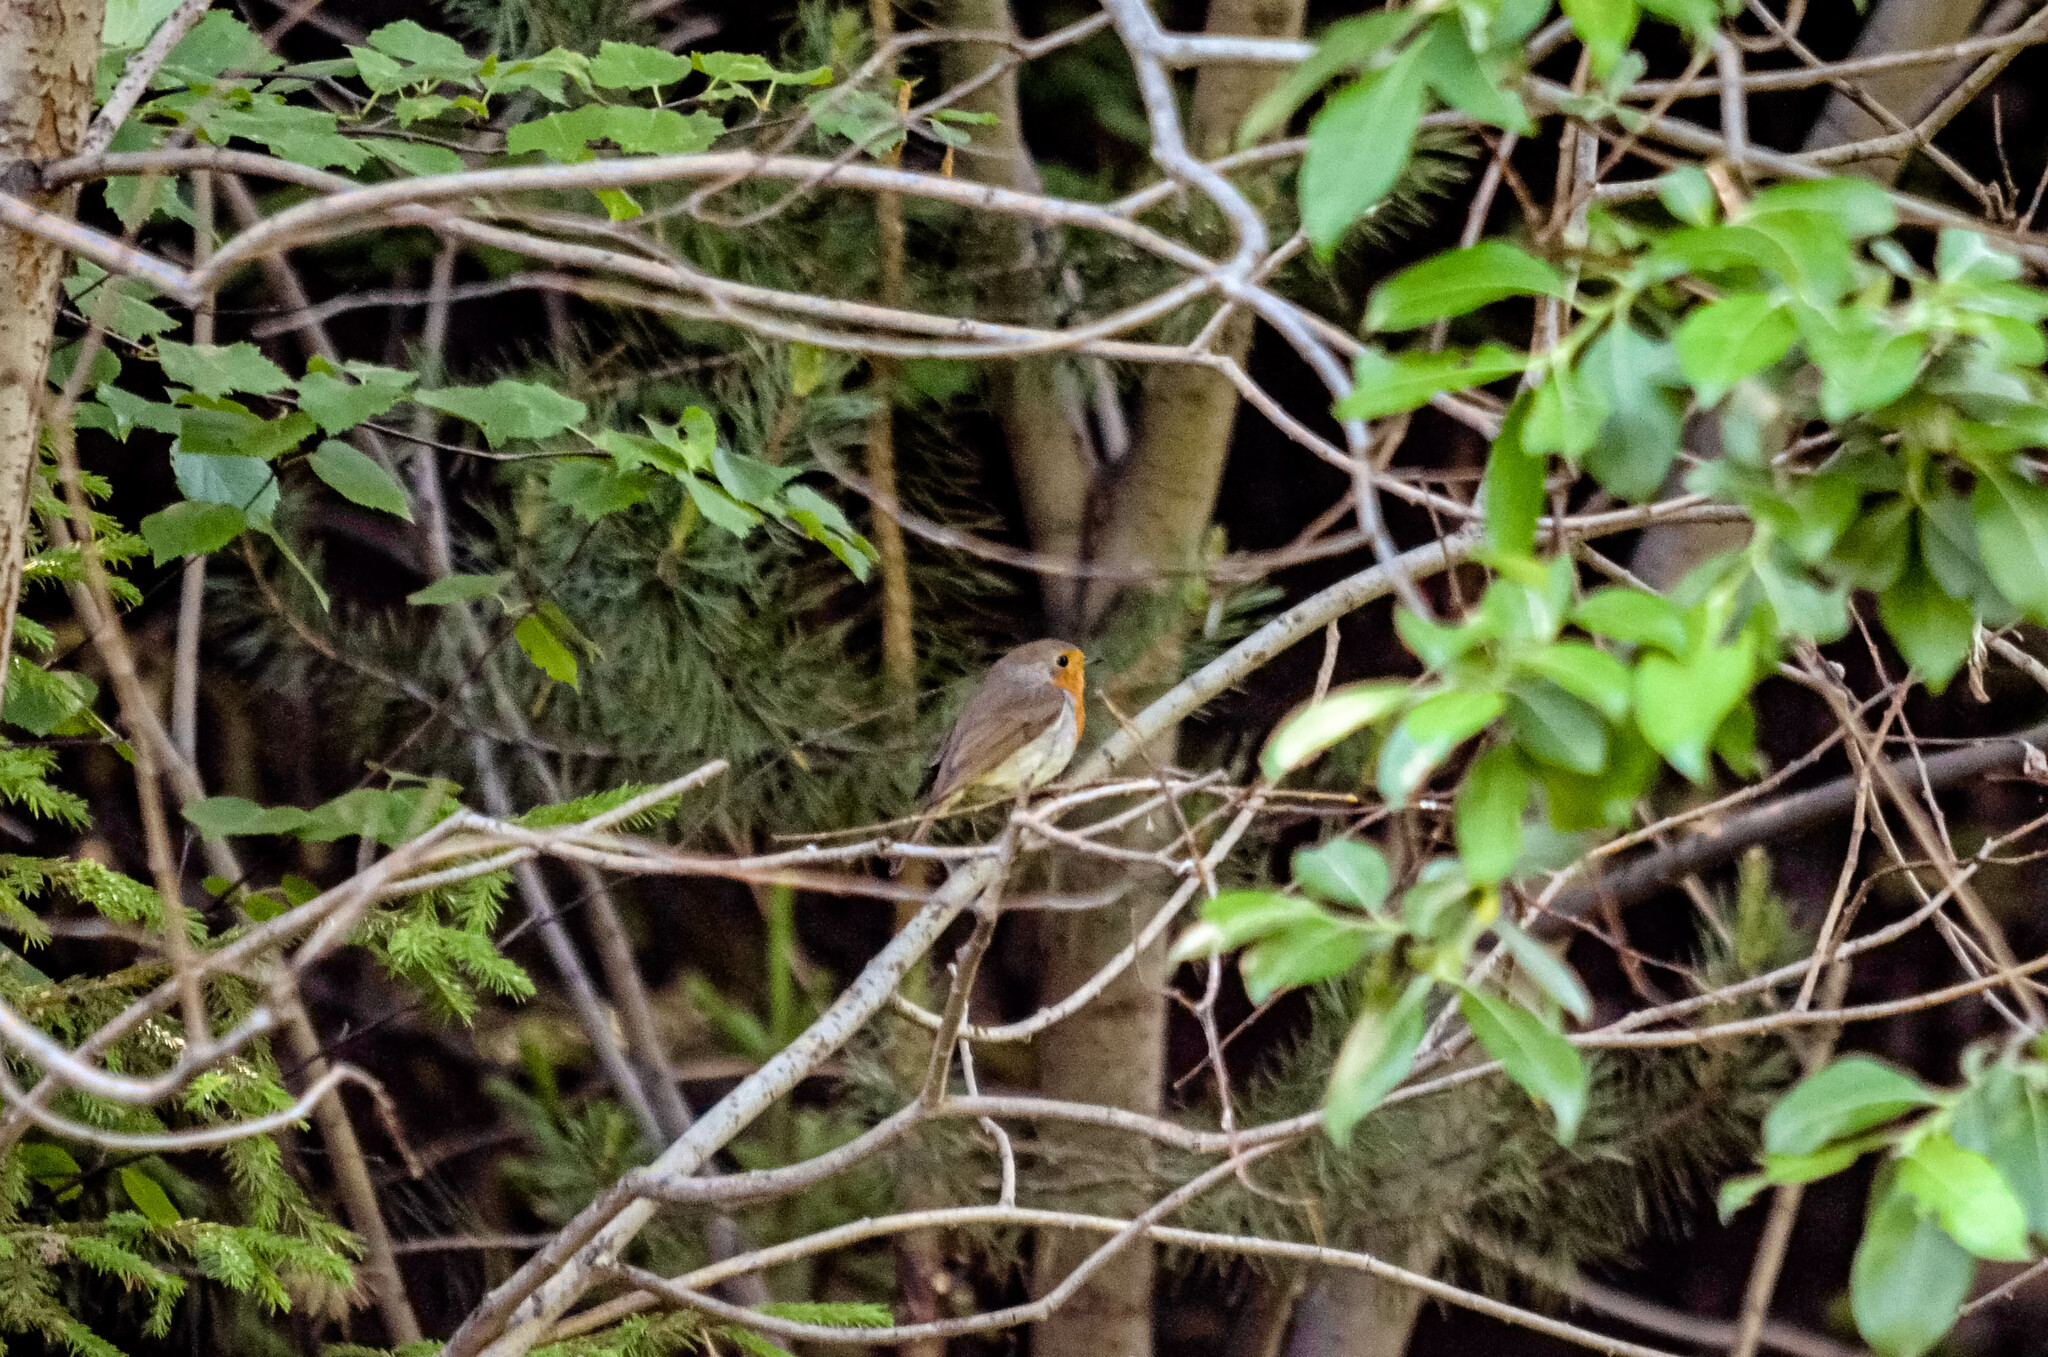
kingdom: Animalia
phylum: Chordata
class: Aves
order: Passeriformes
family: Muscicapidae
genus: Erithacus
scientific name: Erithacus rubecula
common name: European robin
